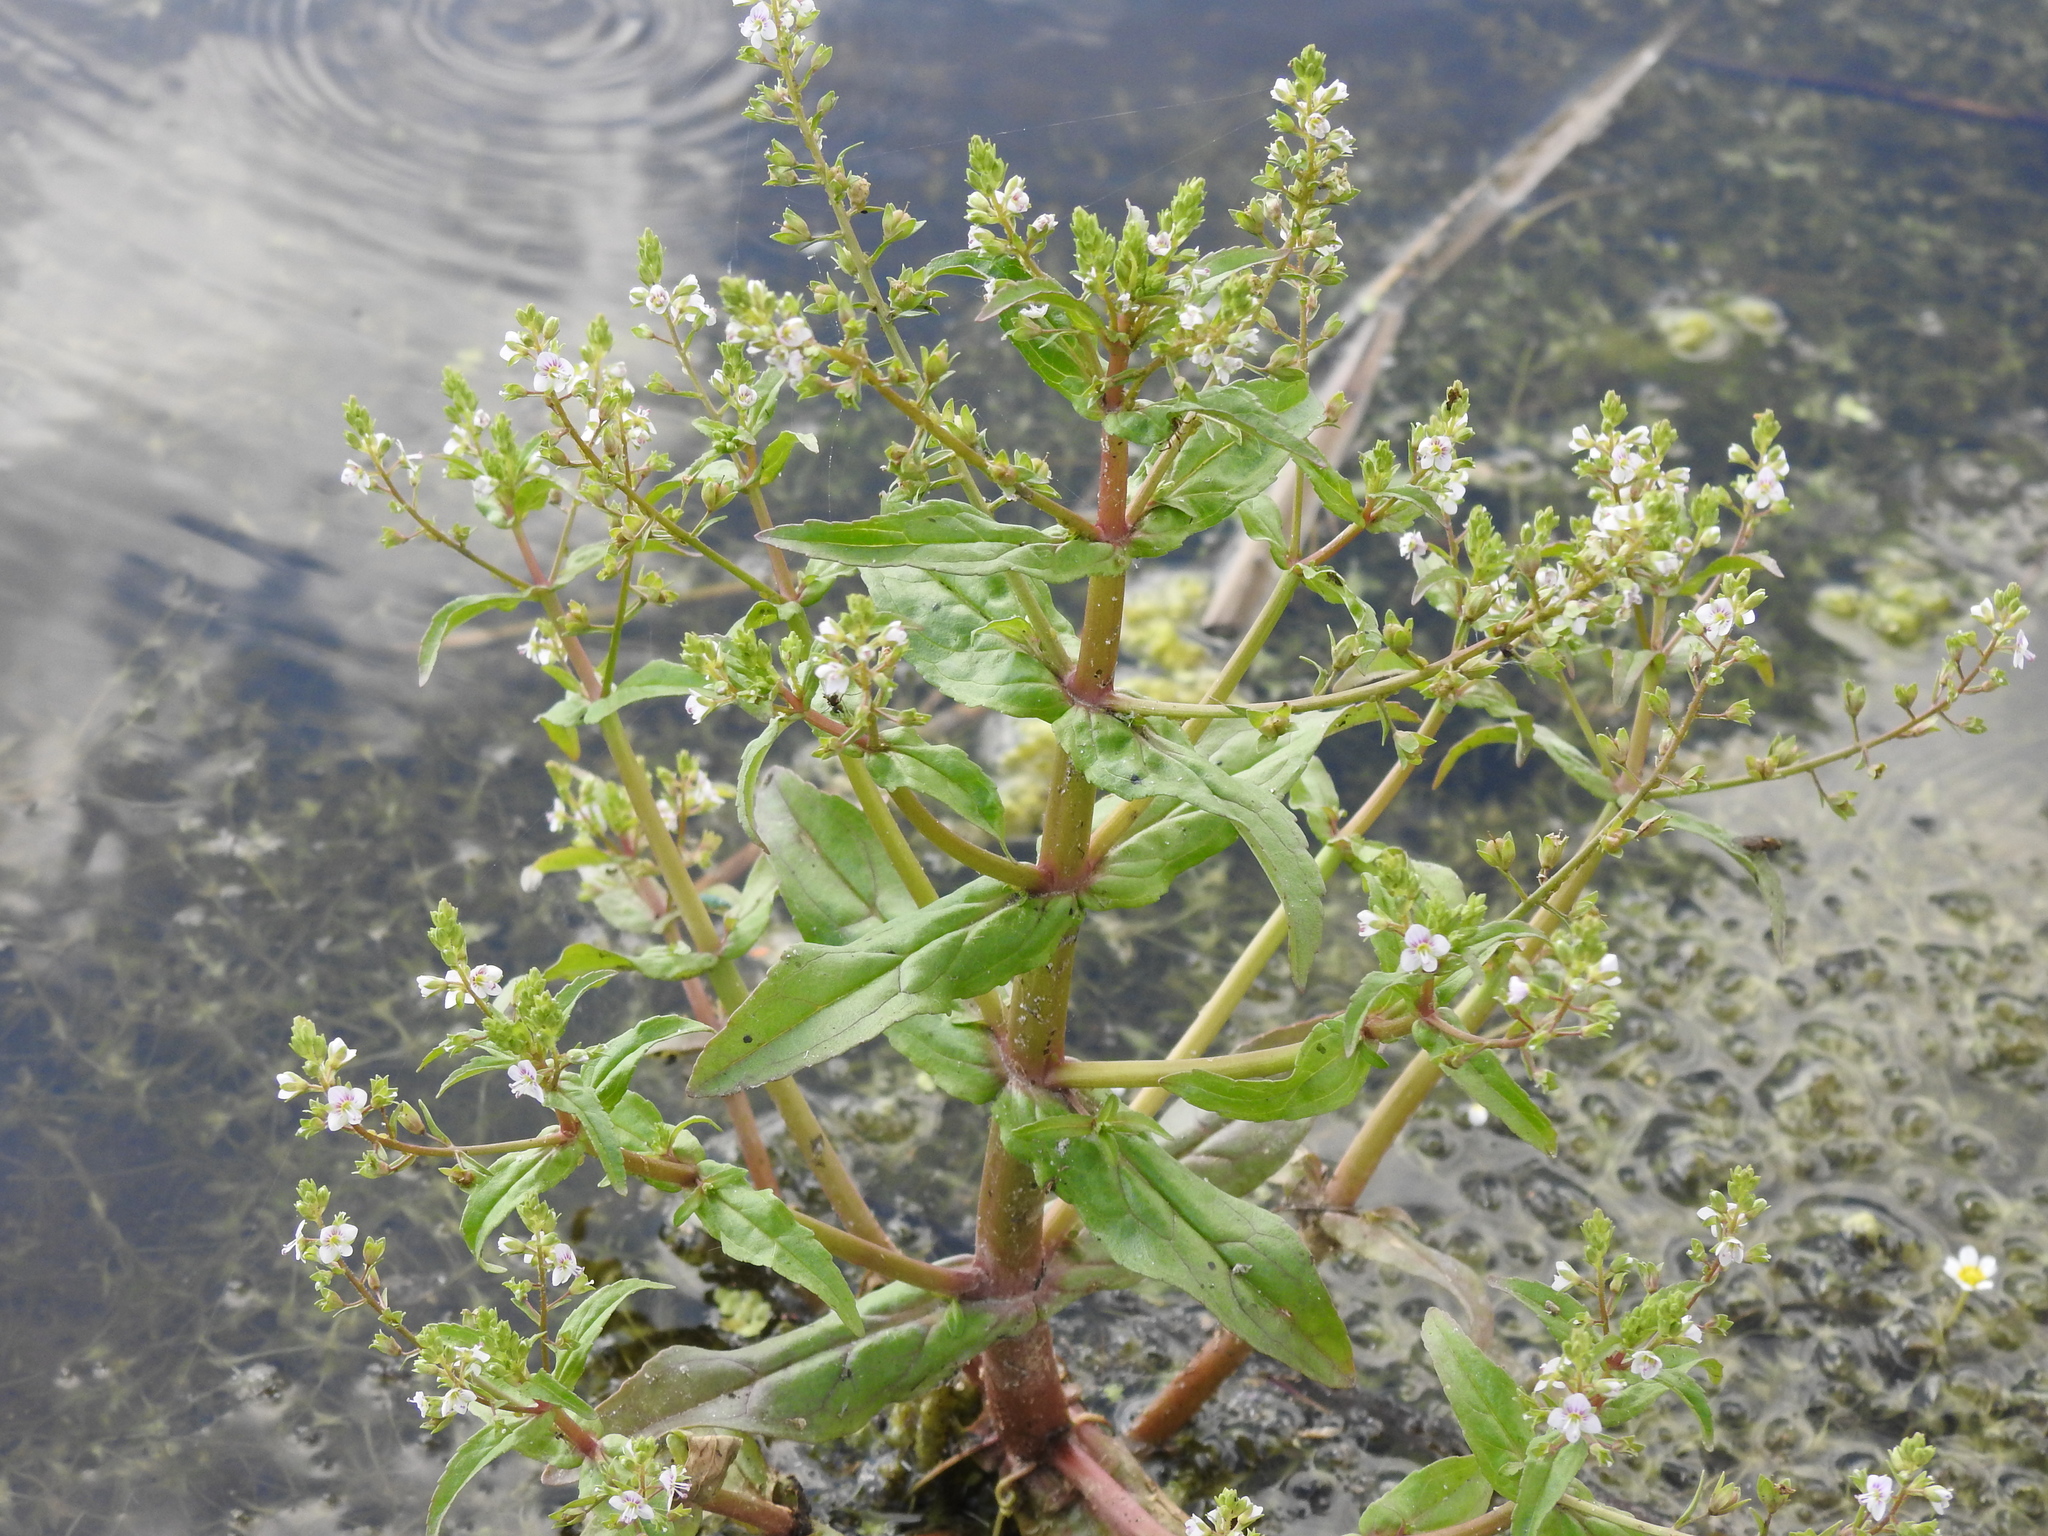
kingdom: Plantae
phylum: Tracheophyta
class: Magnoliopsida
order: Lamiales
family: Plantaginaceae
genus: Veronica
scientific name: Veronica catenata
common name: Pink water-speedwell
